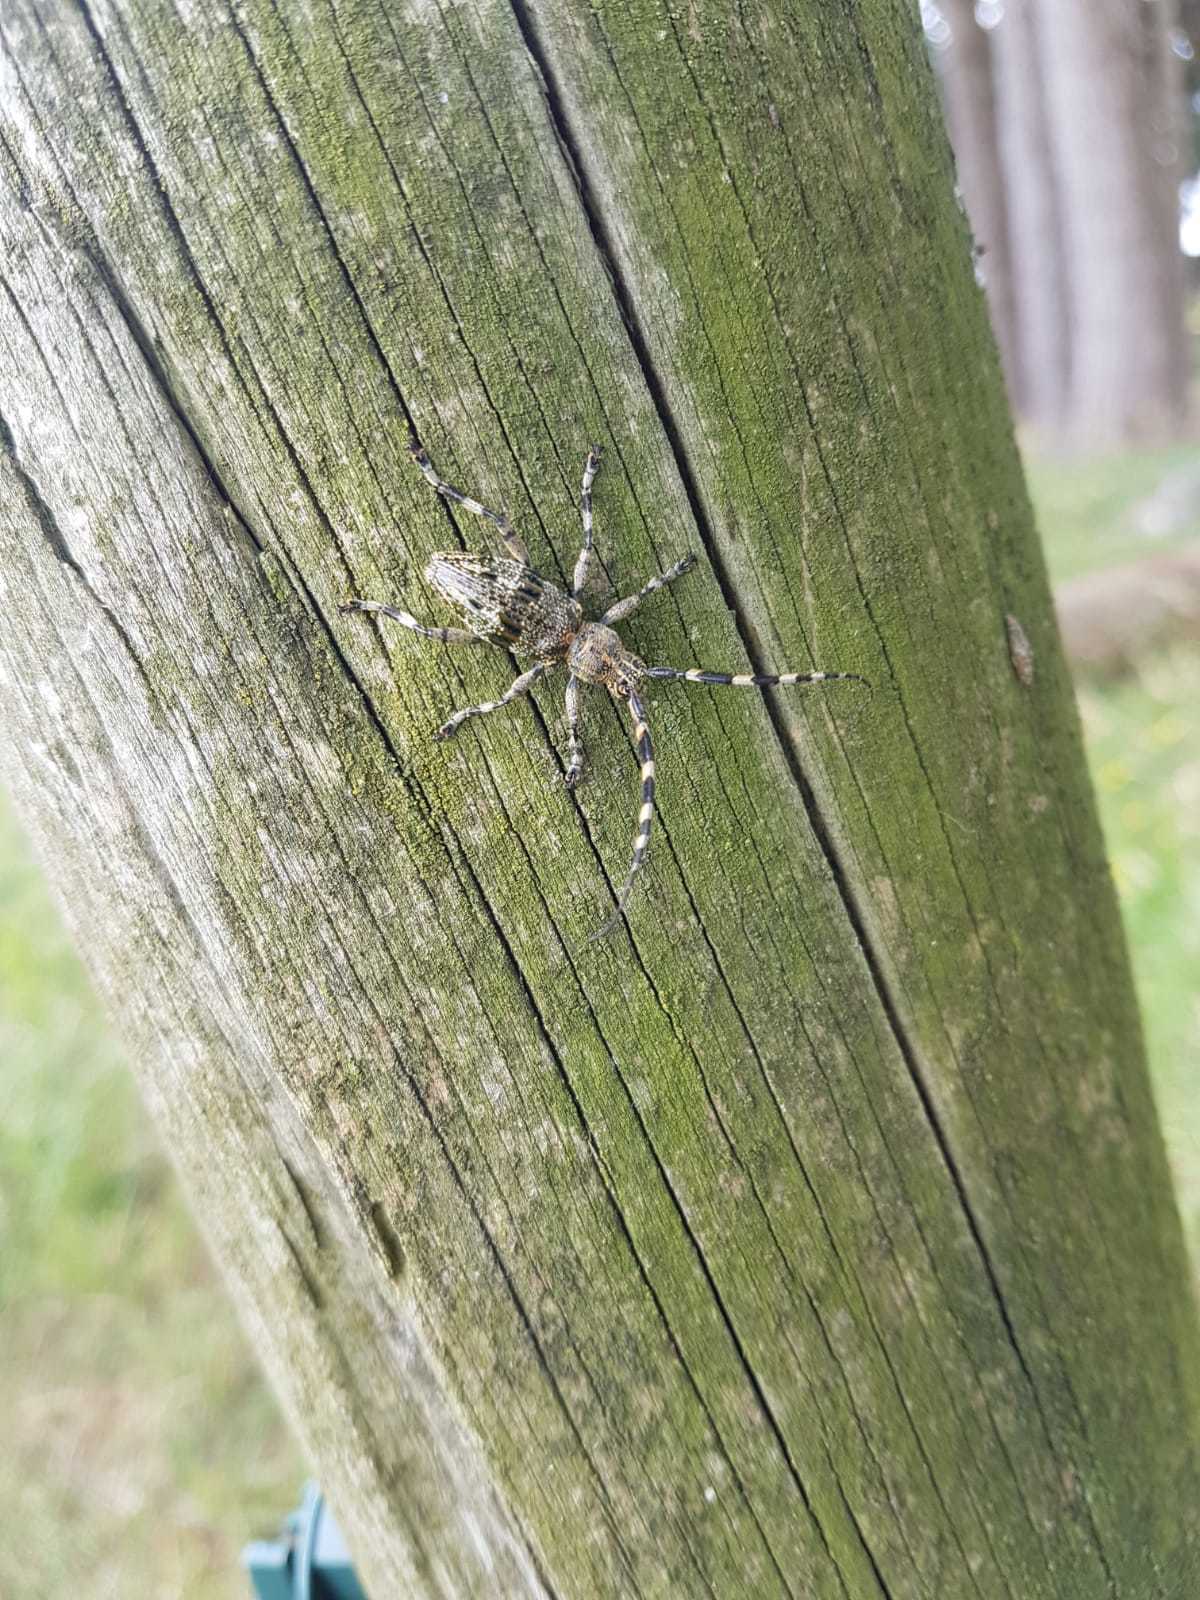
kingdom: Animalia
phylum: Arthropoda
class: Insecta
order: Coleoptera
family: Cerambycidae
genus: Hexatricha
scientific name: Hexatricha pulverulenta
